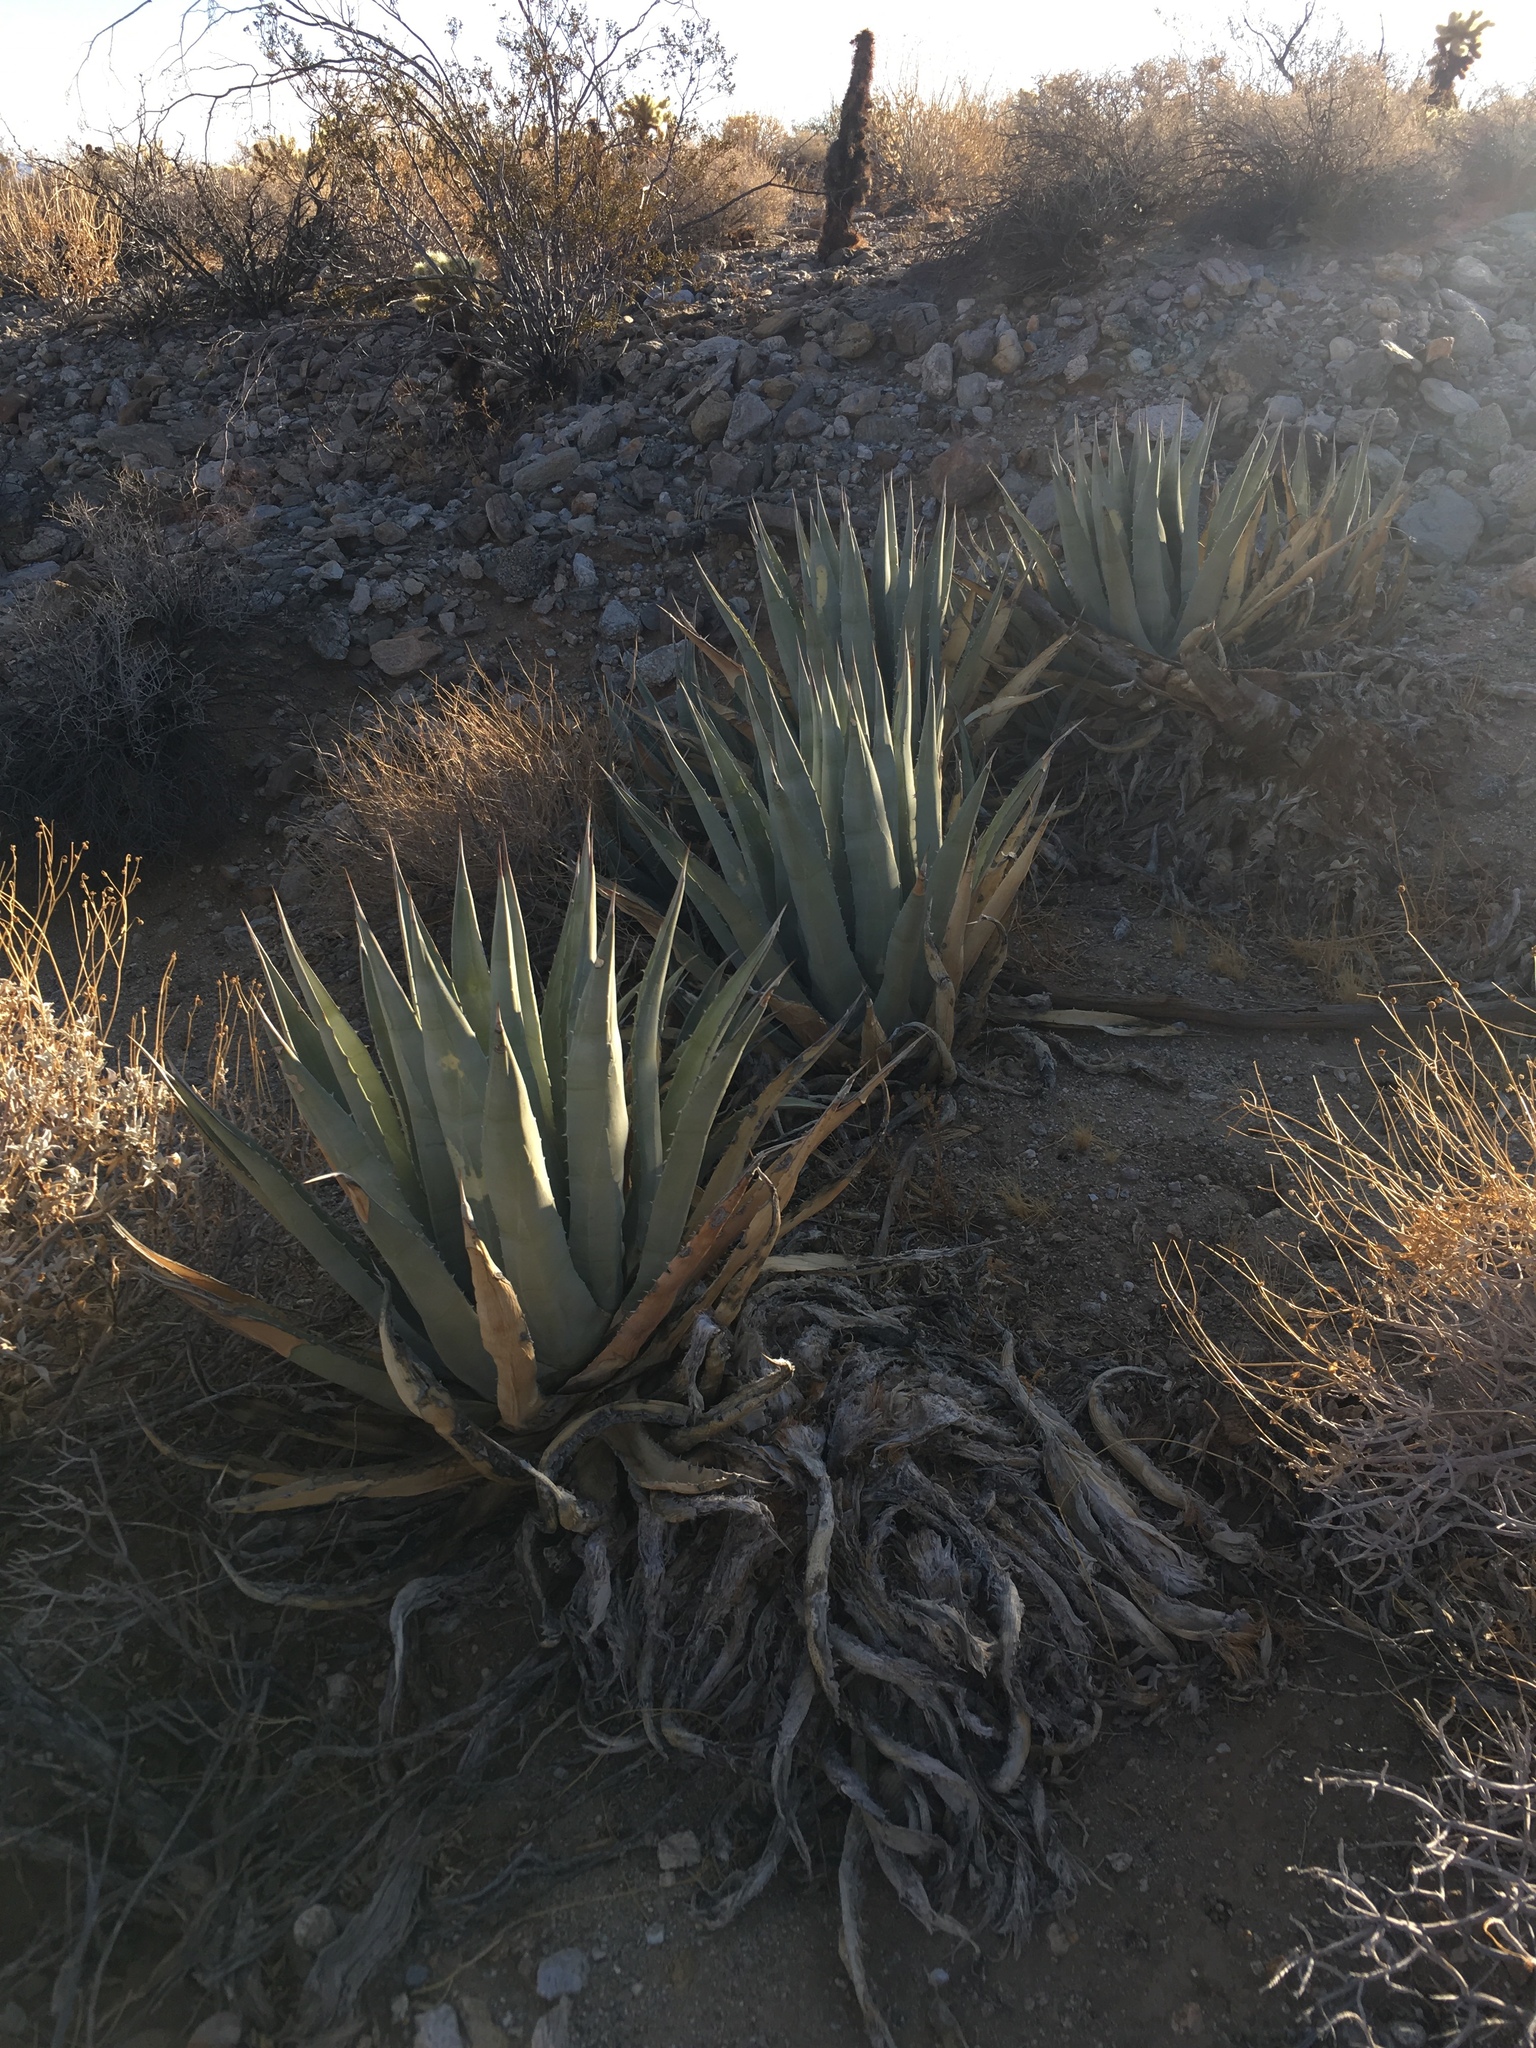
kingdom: Plantae
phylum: Tracheophyta
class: Liliopsida
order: Asparagales
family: Asparagaceae
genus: Agave
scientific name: Agave deserti
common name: Desert agave
